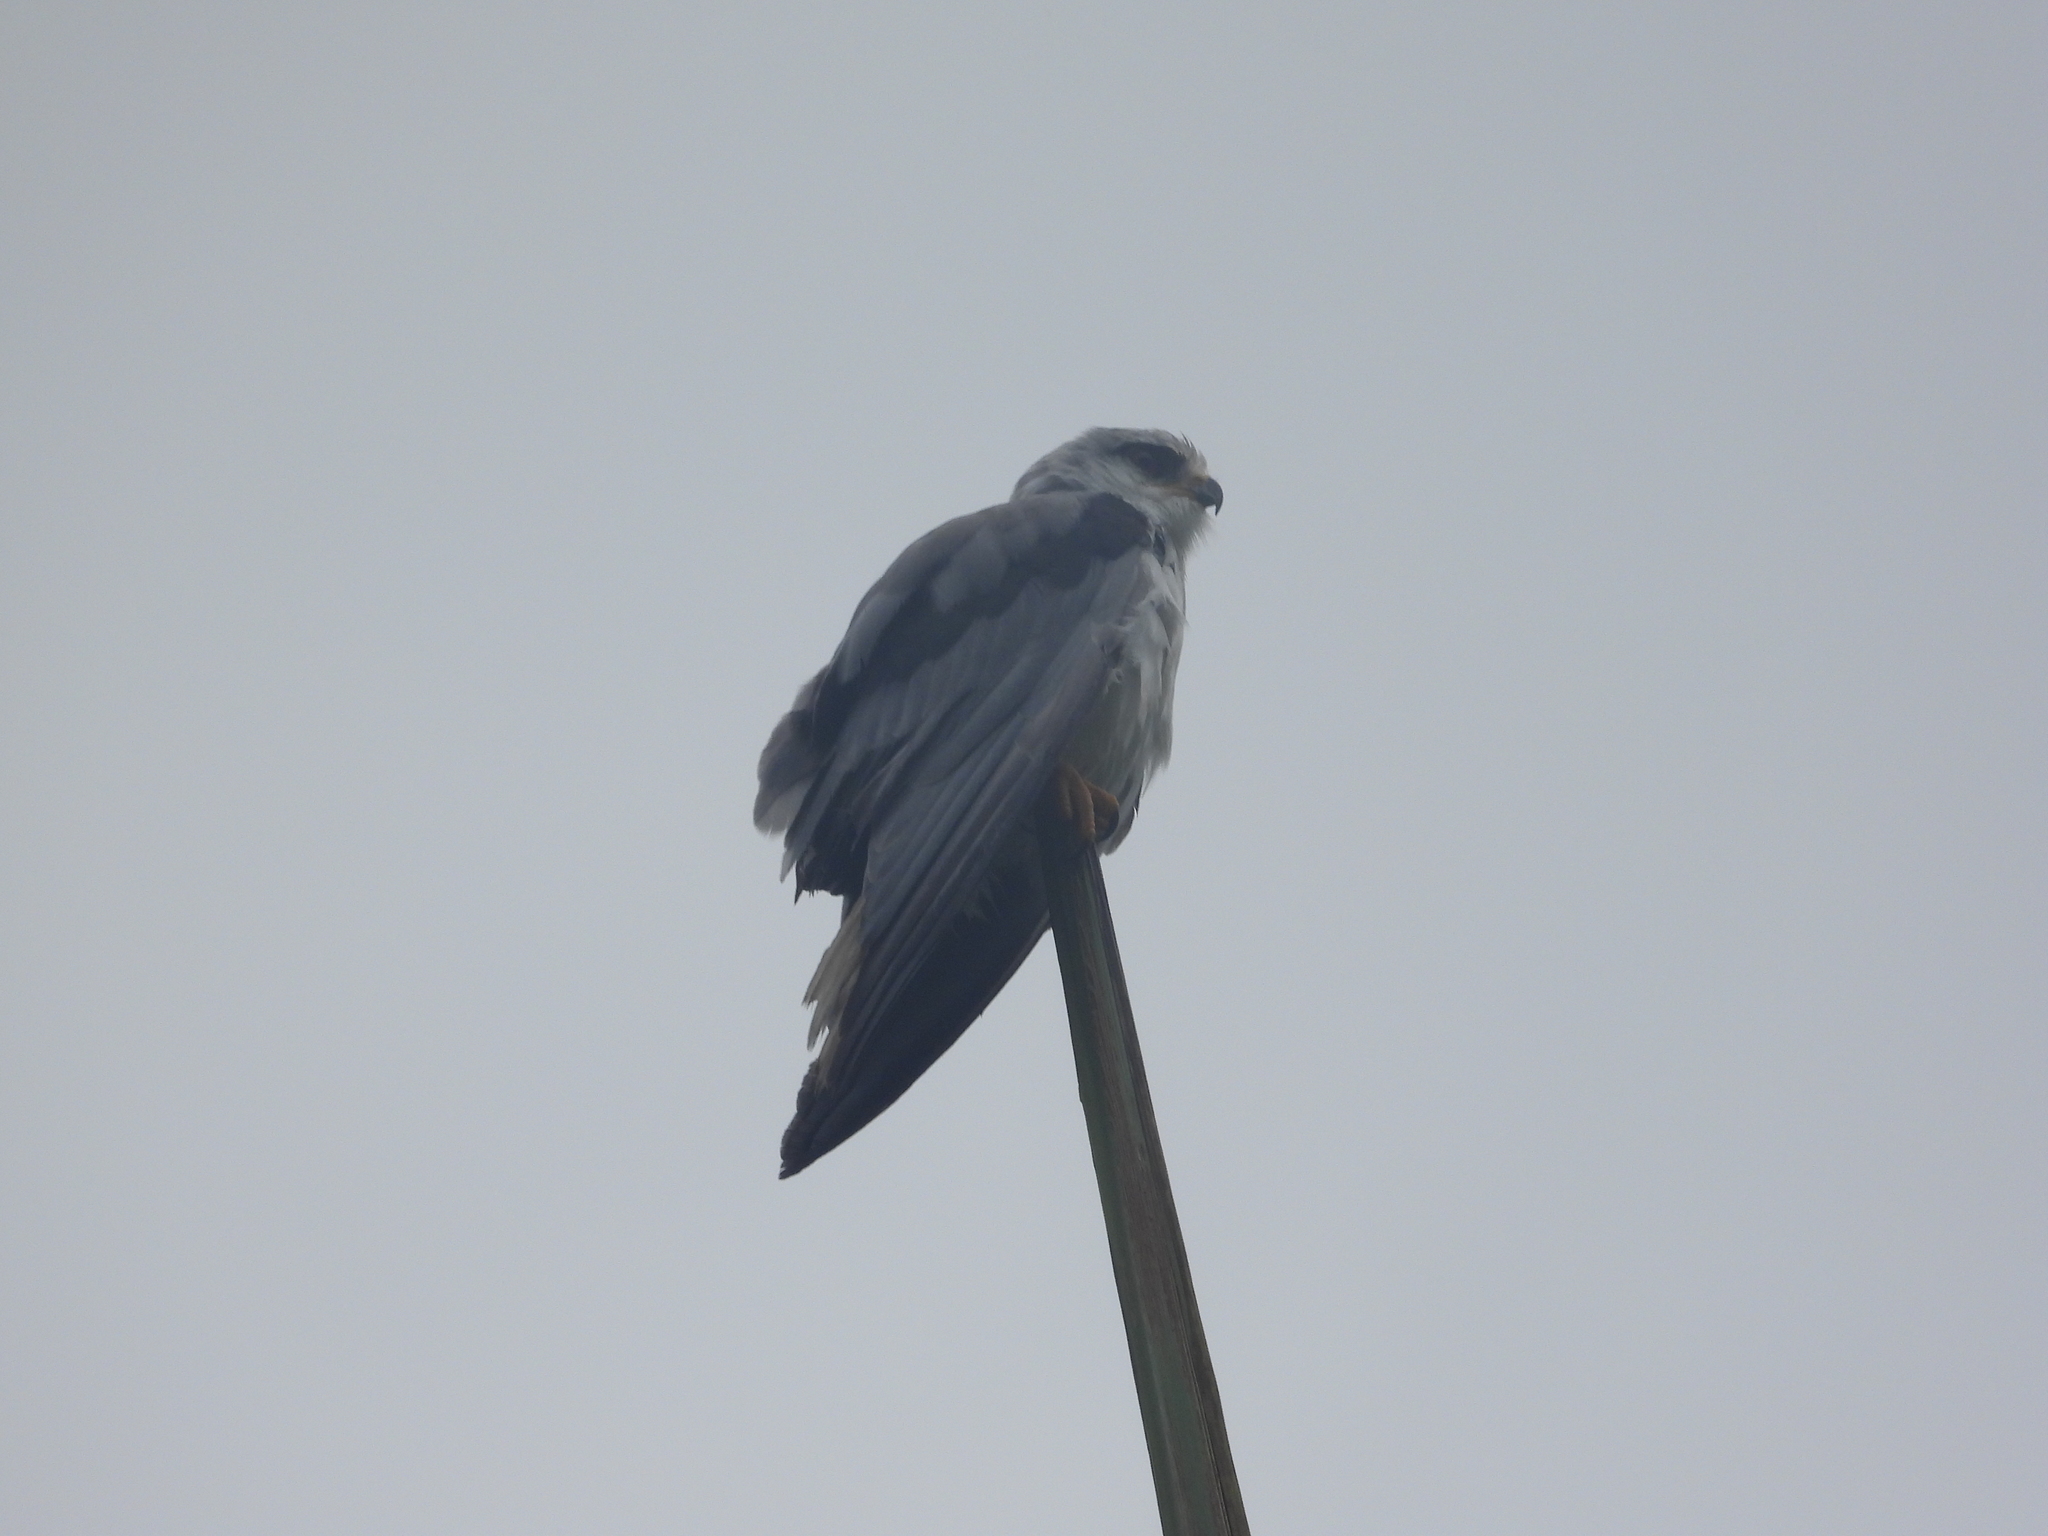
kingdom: Animalia
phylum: Chordata
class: Aves
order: Accipitriformes
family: Accipitridae
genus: Elanus
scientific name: Elanus caeruleus
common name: Black-winged kite
